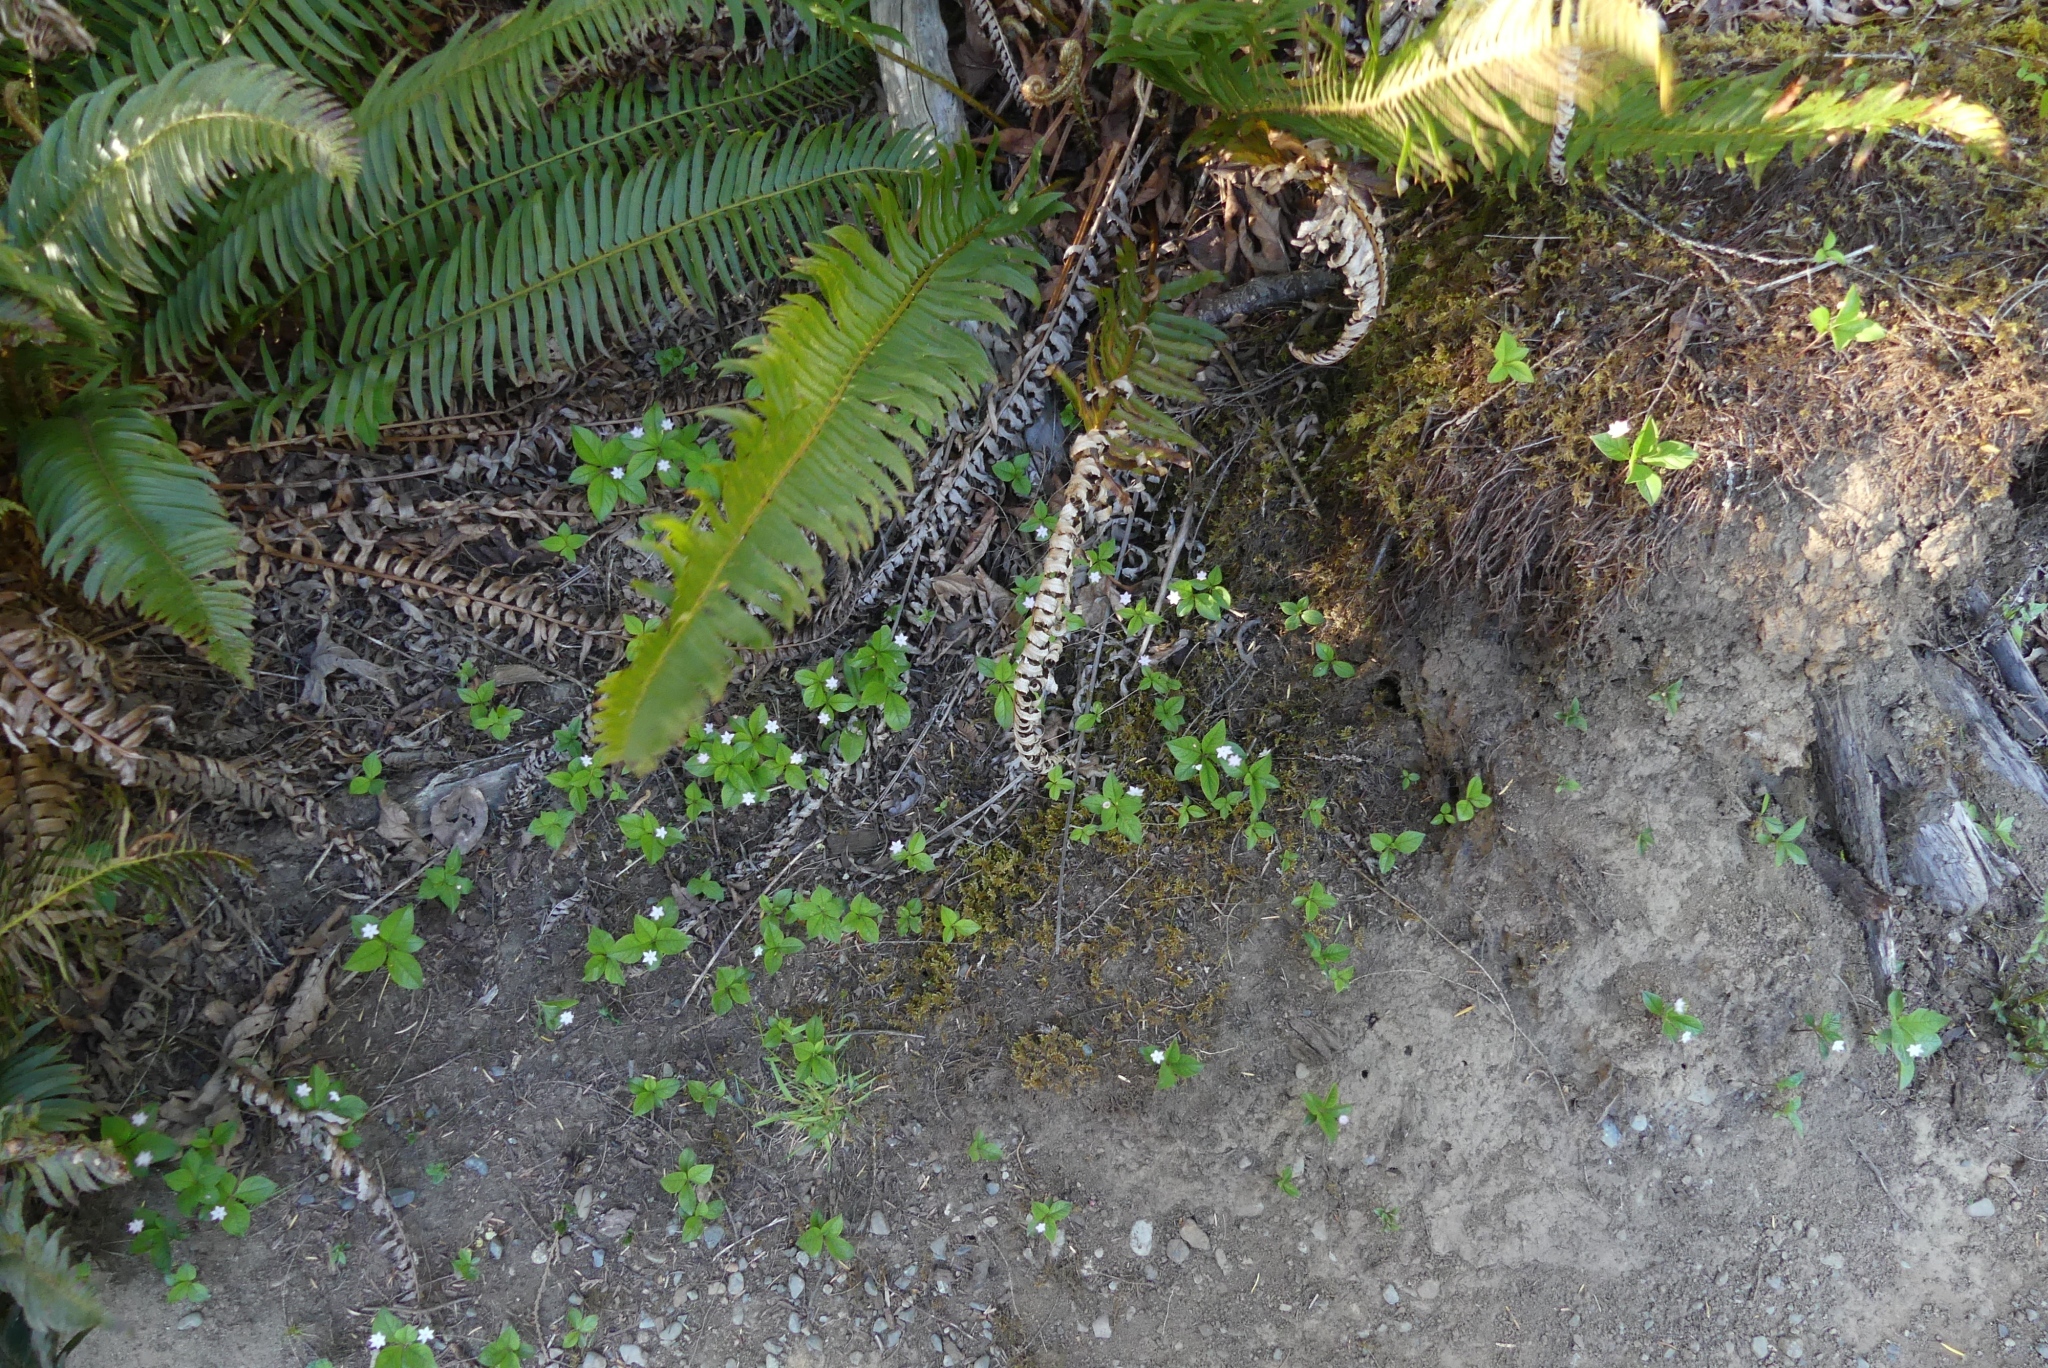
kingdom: Plantae
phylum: Tracheophyta
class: Magnoliopsida
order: Ericales
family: Primulaceae
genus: Lysimachia
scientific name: Lysimachia latifolia
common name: Pacific starflower
